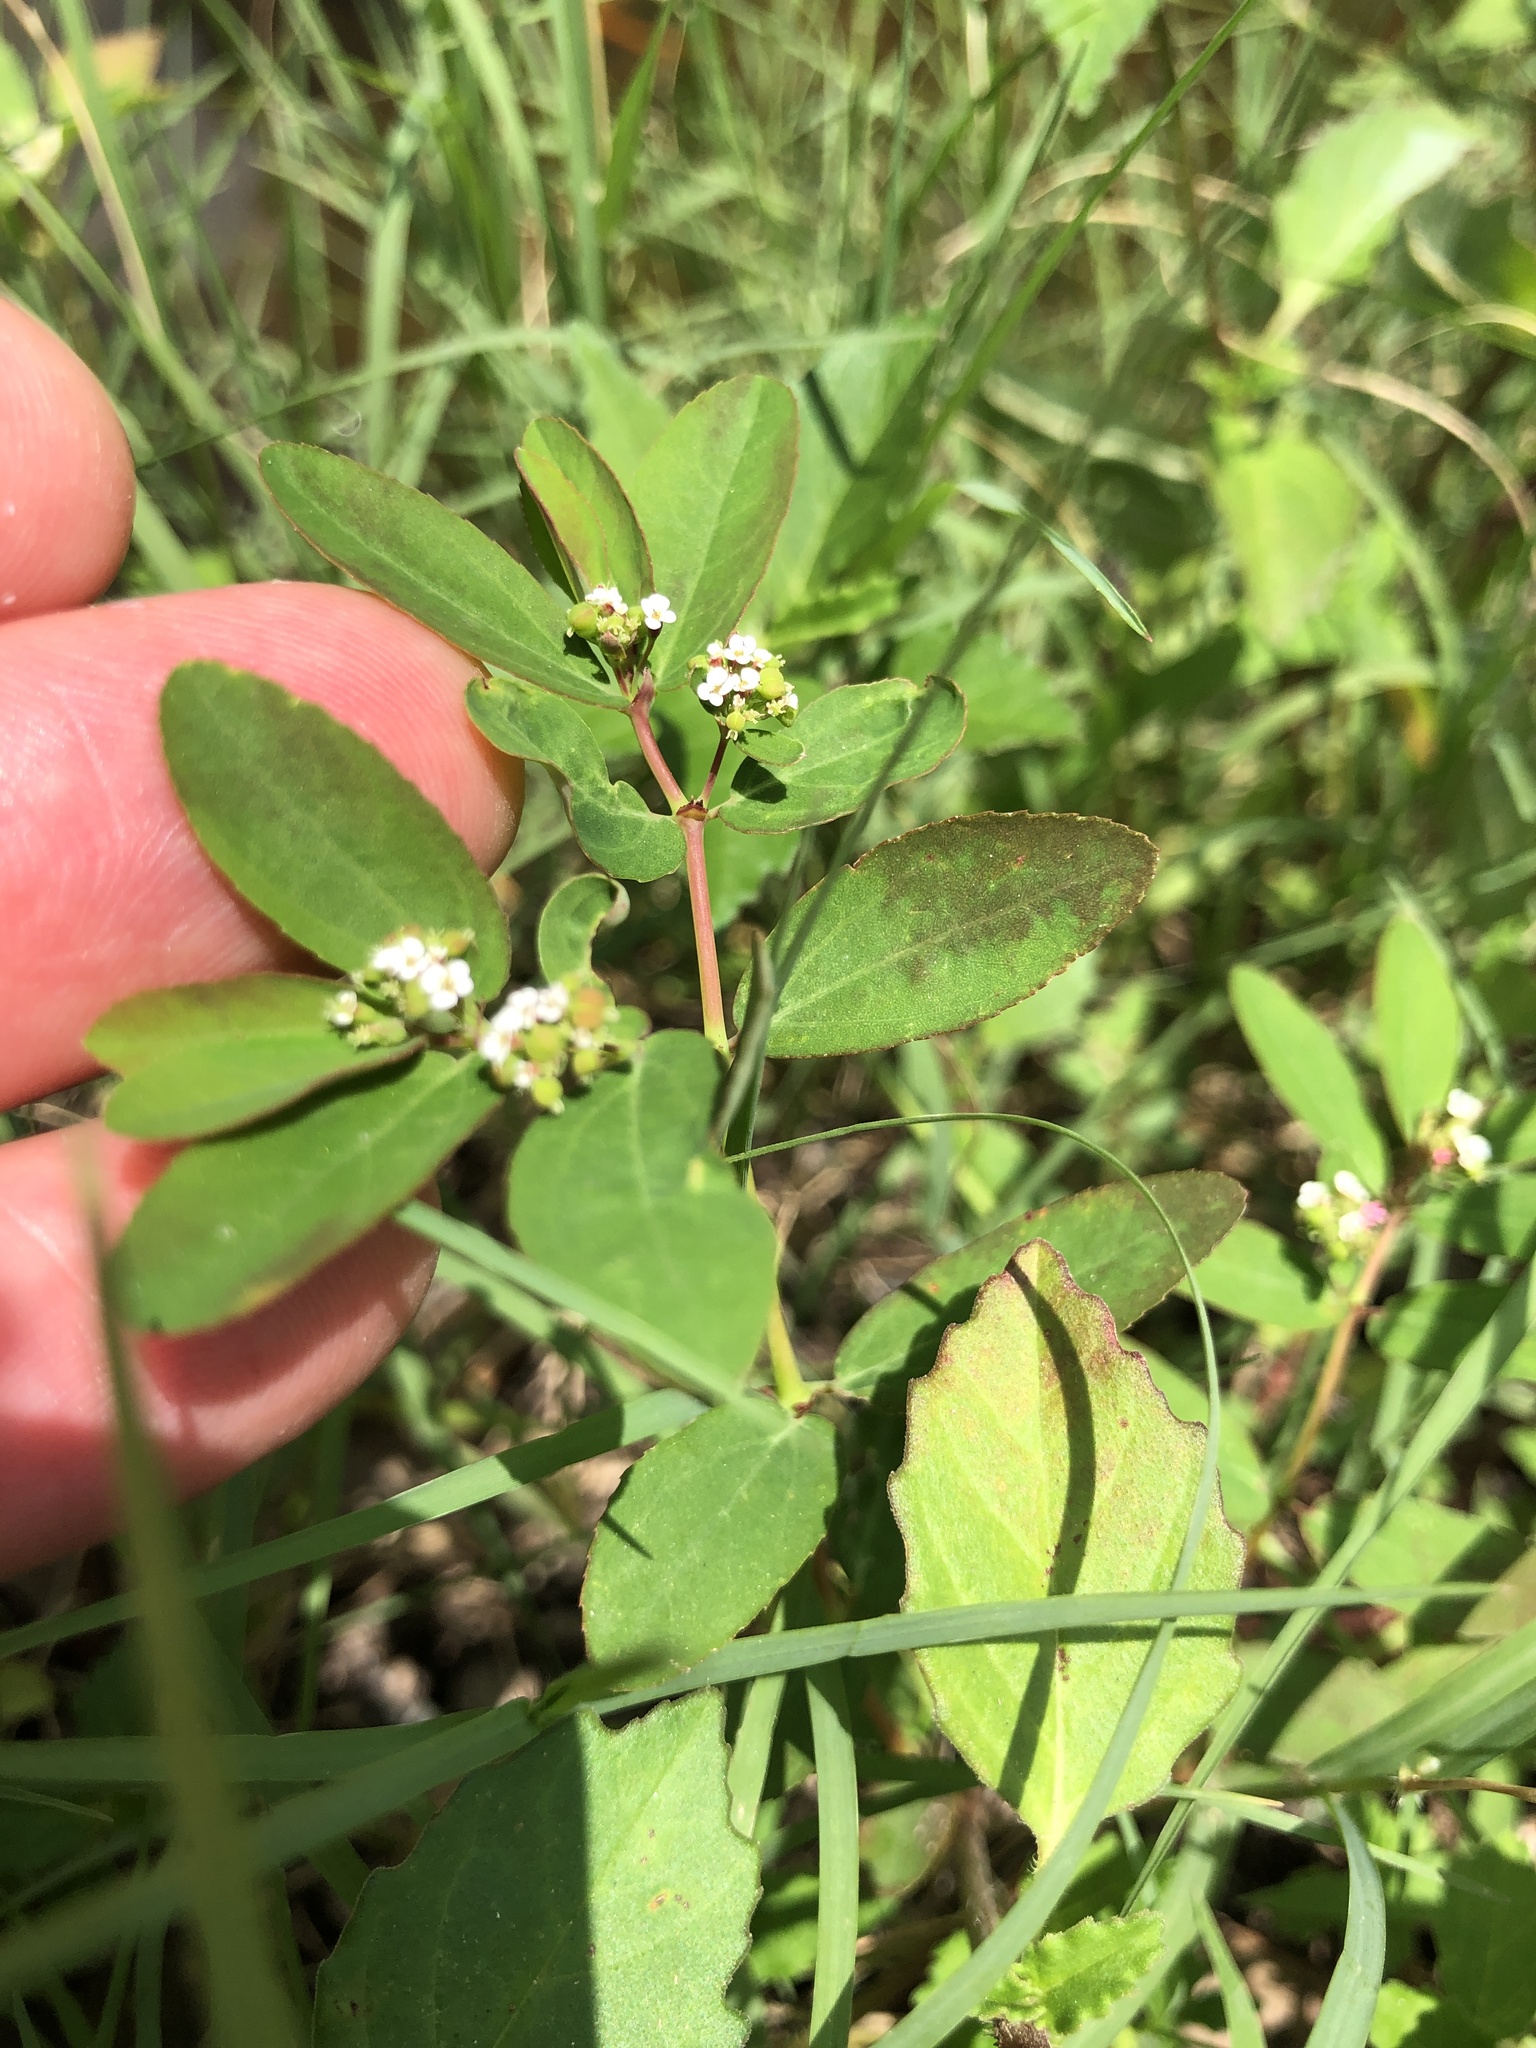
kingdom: Plantae
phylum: Tracheophyta
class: Magnoliopsida
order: Malpighiales
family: Euphorbiaceae
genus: Euphorbia
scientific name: Euphorbia hypericifolia
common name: Graceful sandmat
